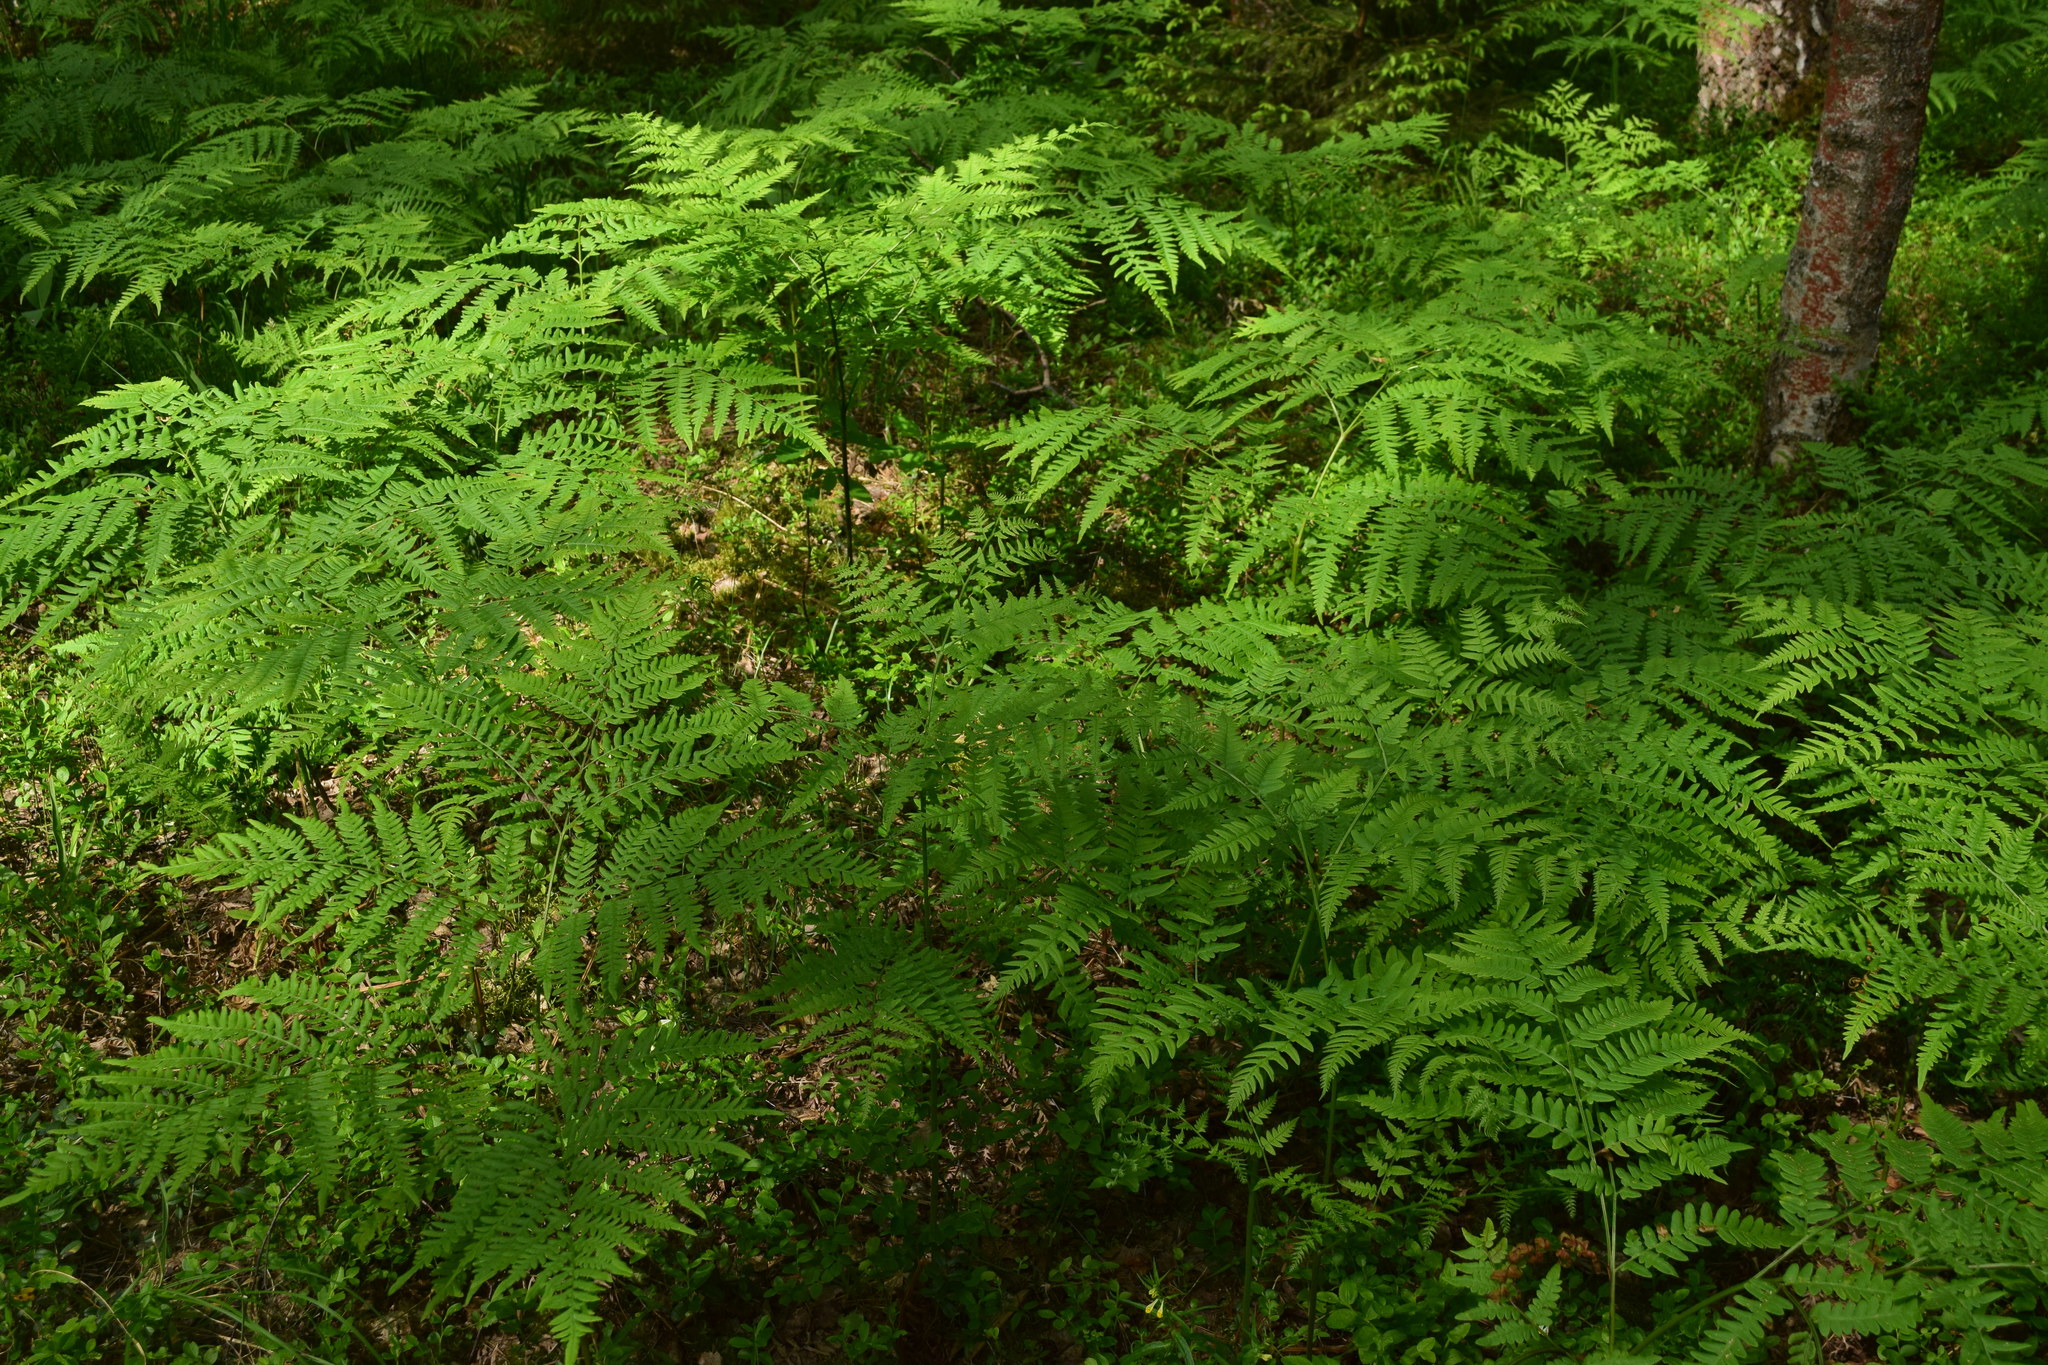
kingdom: Plantae
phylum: Tracheophyta
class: Polypodiopsida
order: Polypodiales
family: Dennstaedtiaceae
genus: Pteridium
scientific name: Pteridium aquilinum
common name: Bracken
